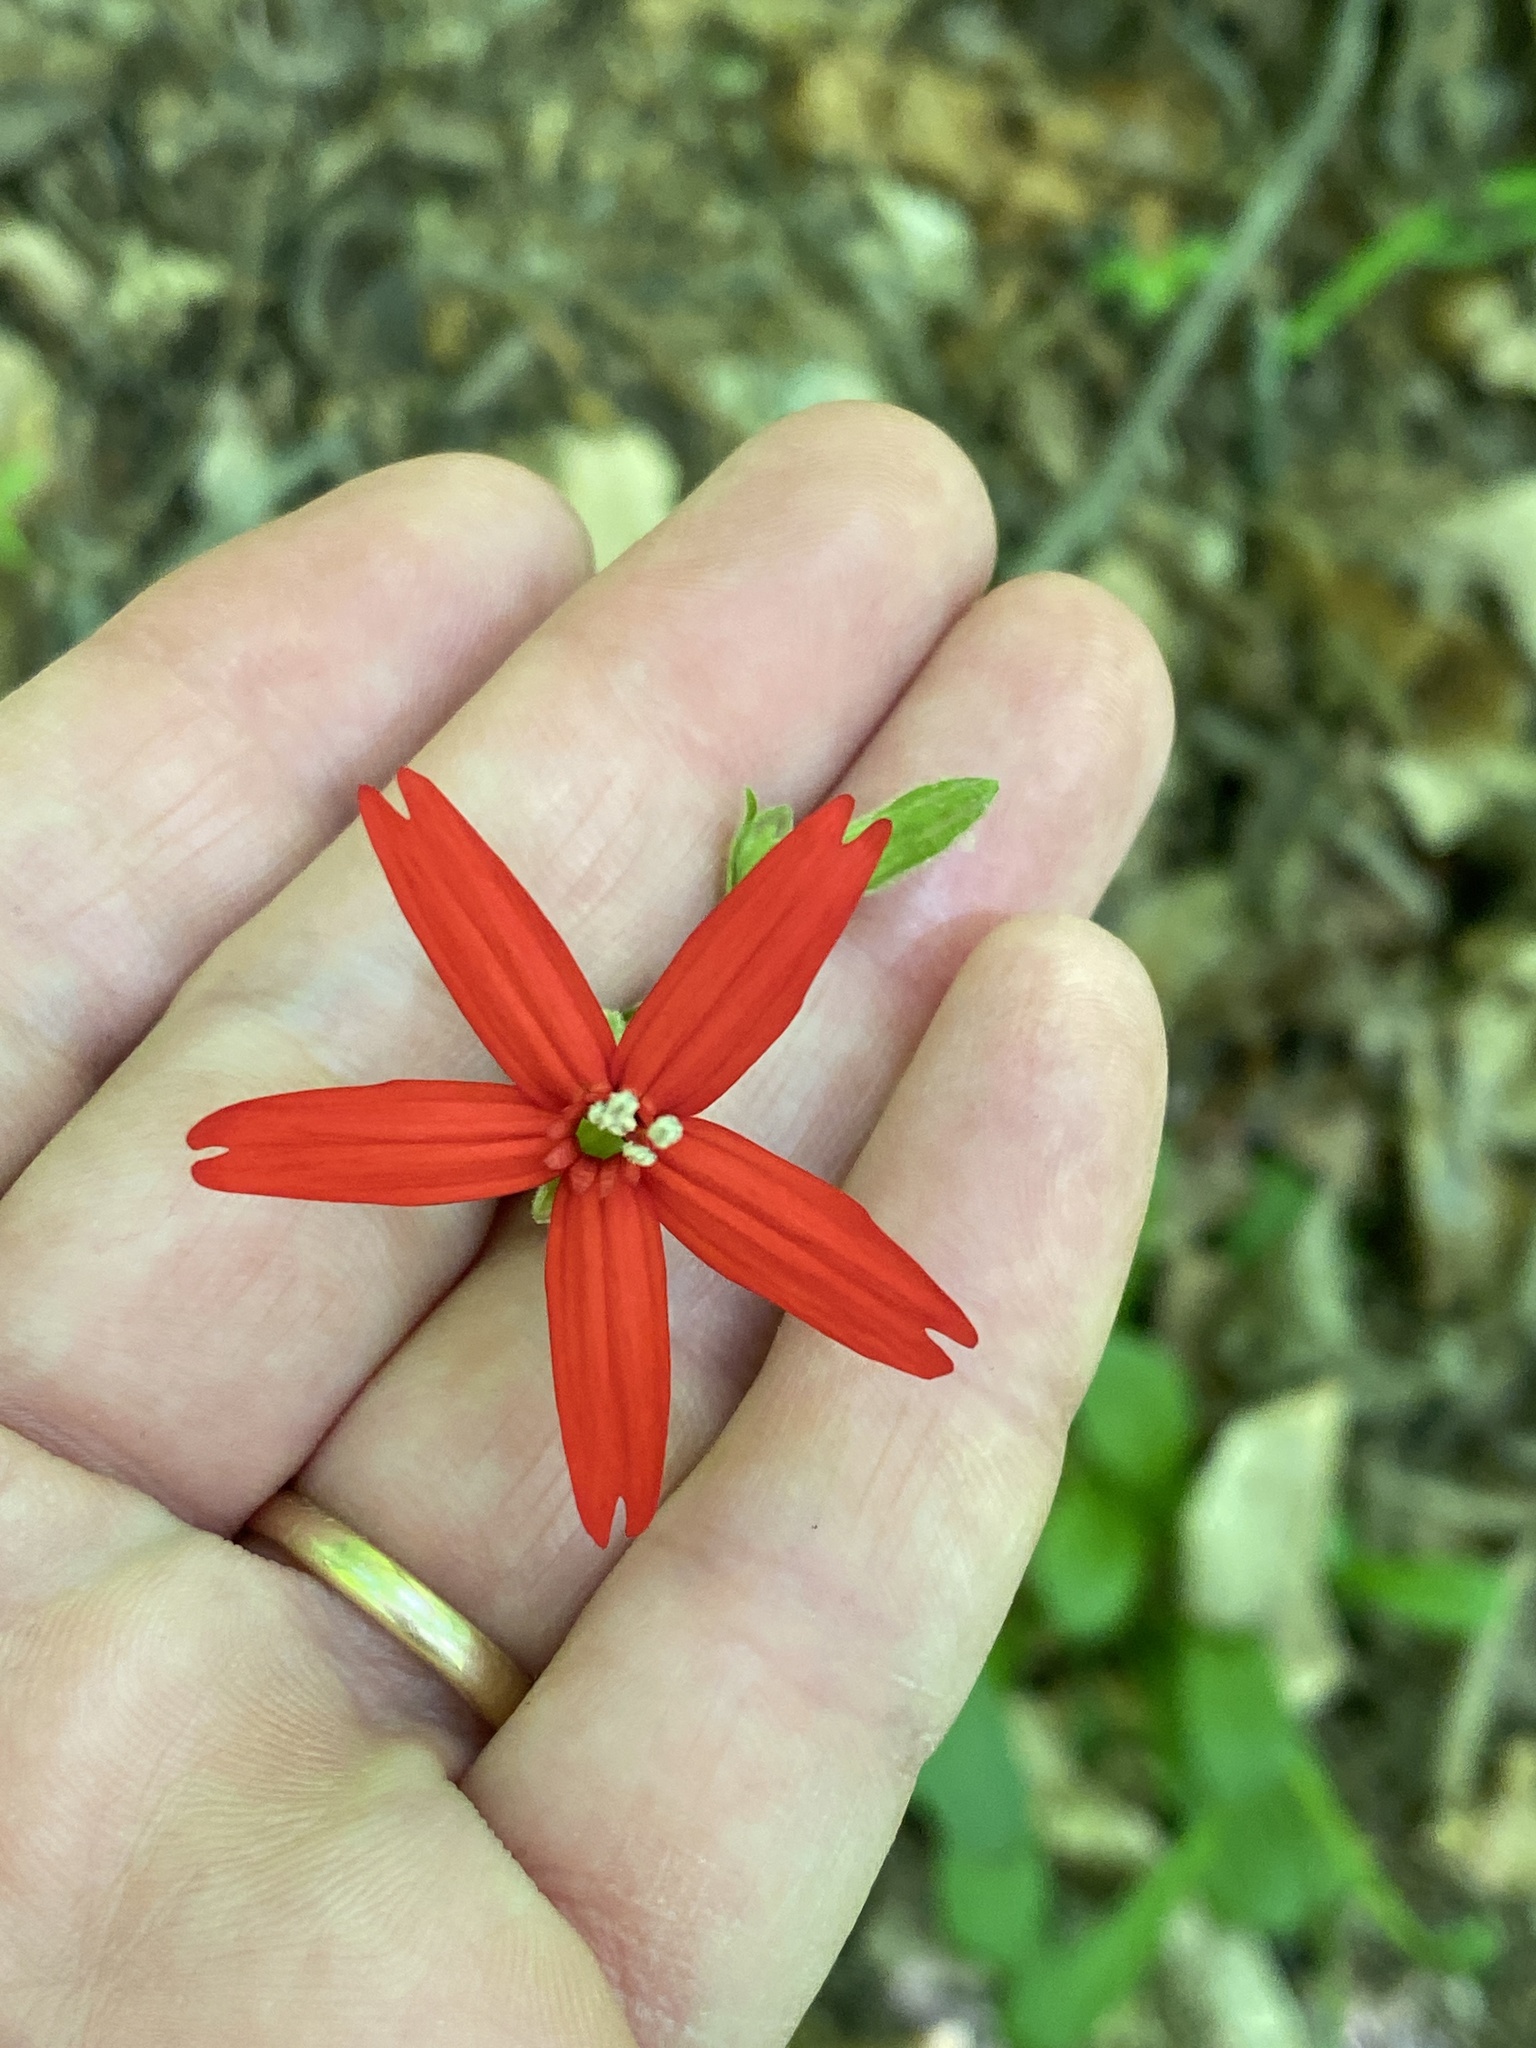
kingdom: Plantae
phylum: Tracheophyta
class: Magnoliopsida
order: Caryophyllales
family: Caryophyllaceae
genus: Silene
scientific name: Silene virginica
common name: Fire-pink
